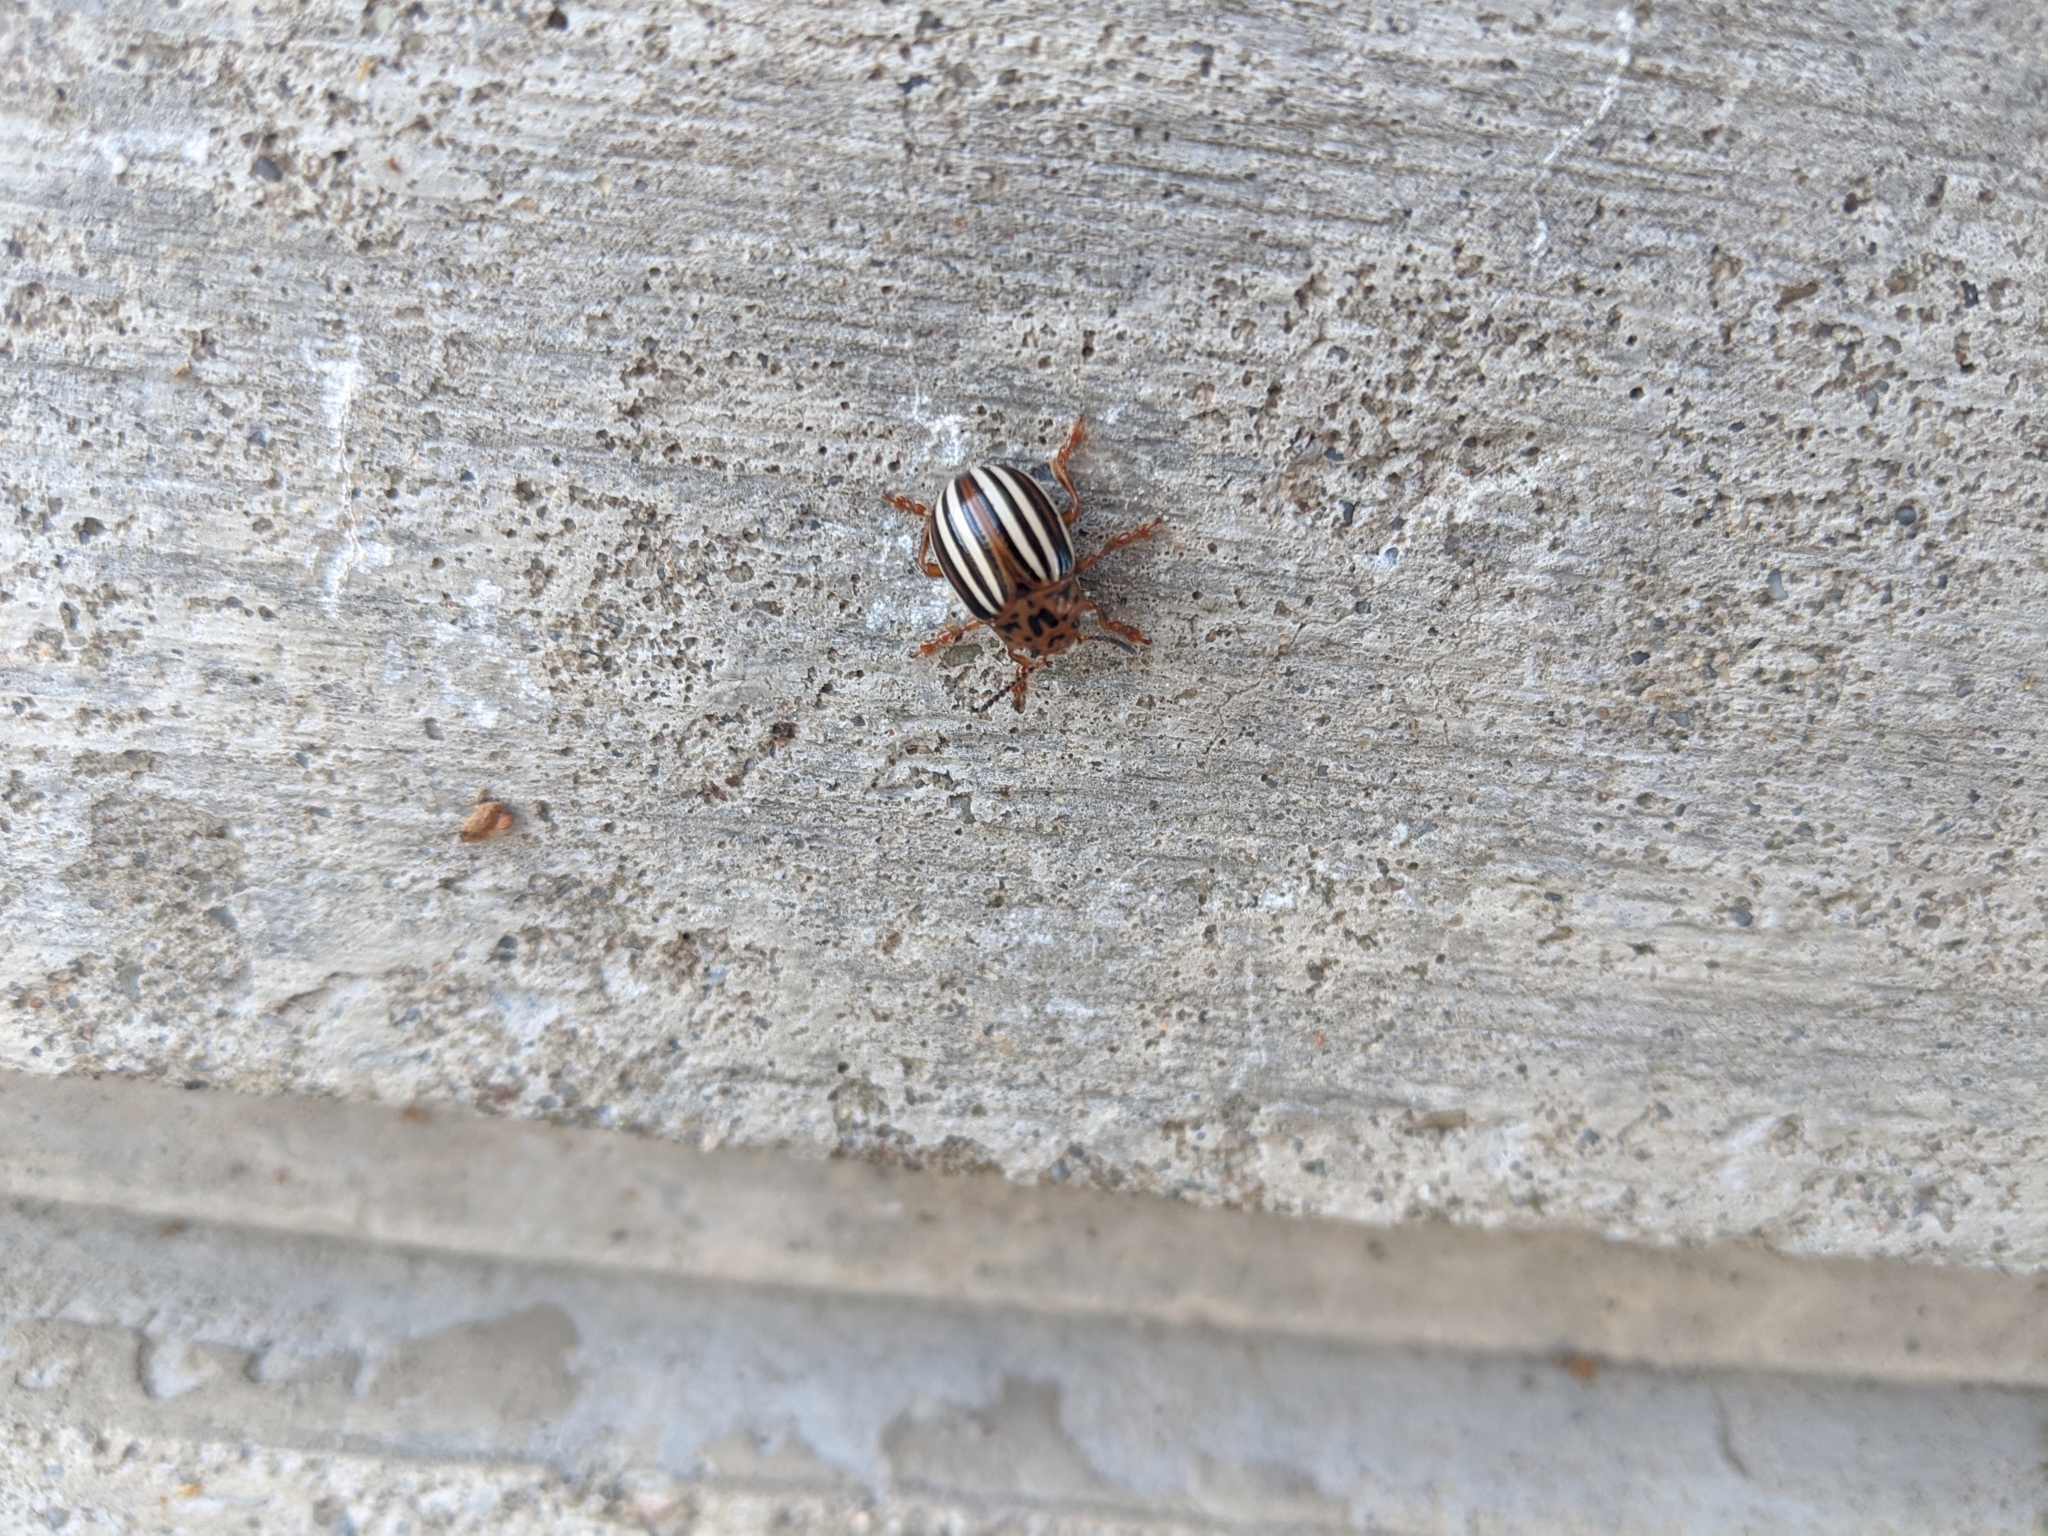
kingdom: Animalia
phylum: Arthropoda
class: Insecta
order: Coleoptera
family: Chrysomelidae
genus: Leptinotarsa
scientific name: Leptinotarsa juncta
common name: False potato beetle
